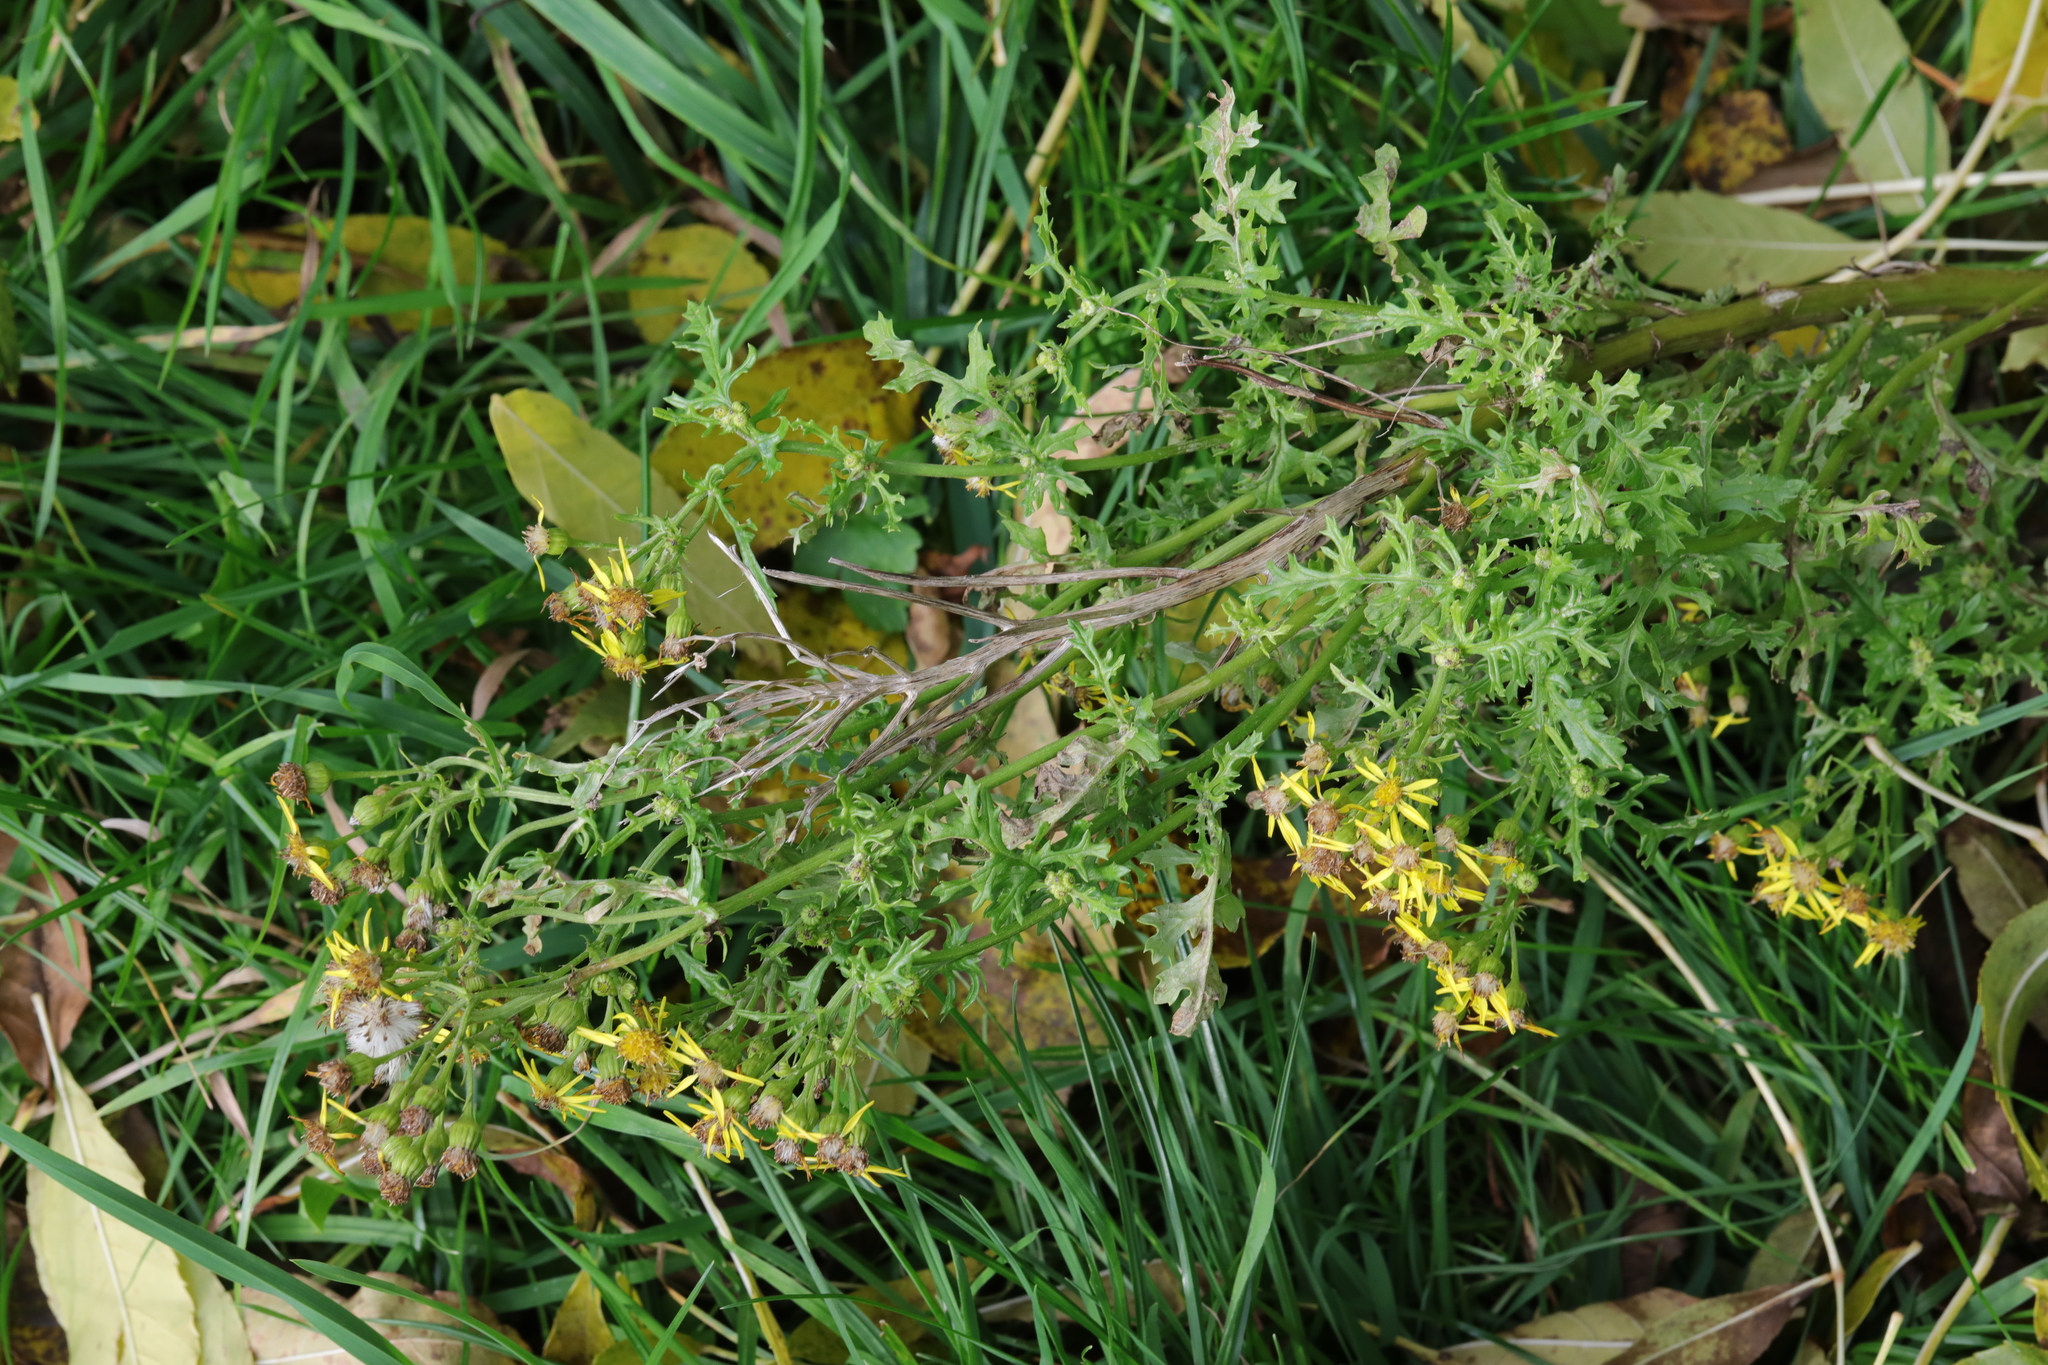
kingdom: Plantae
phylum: Tracheophyta
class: Magnoliopsida
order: Asterales
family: Asteraceae
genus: Jacobaea
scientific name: Jacobaea vulgaris
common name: Stinking willie
